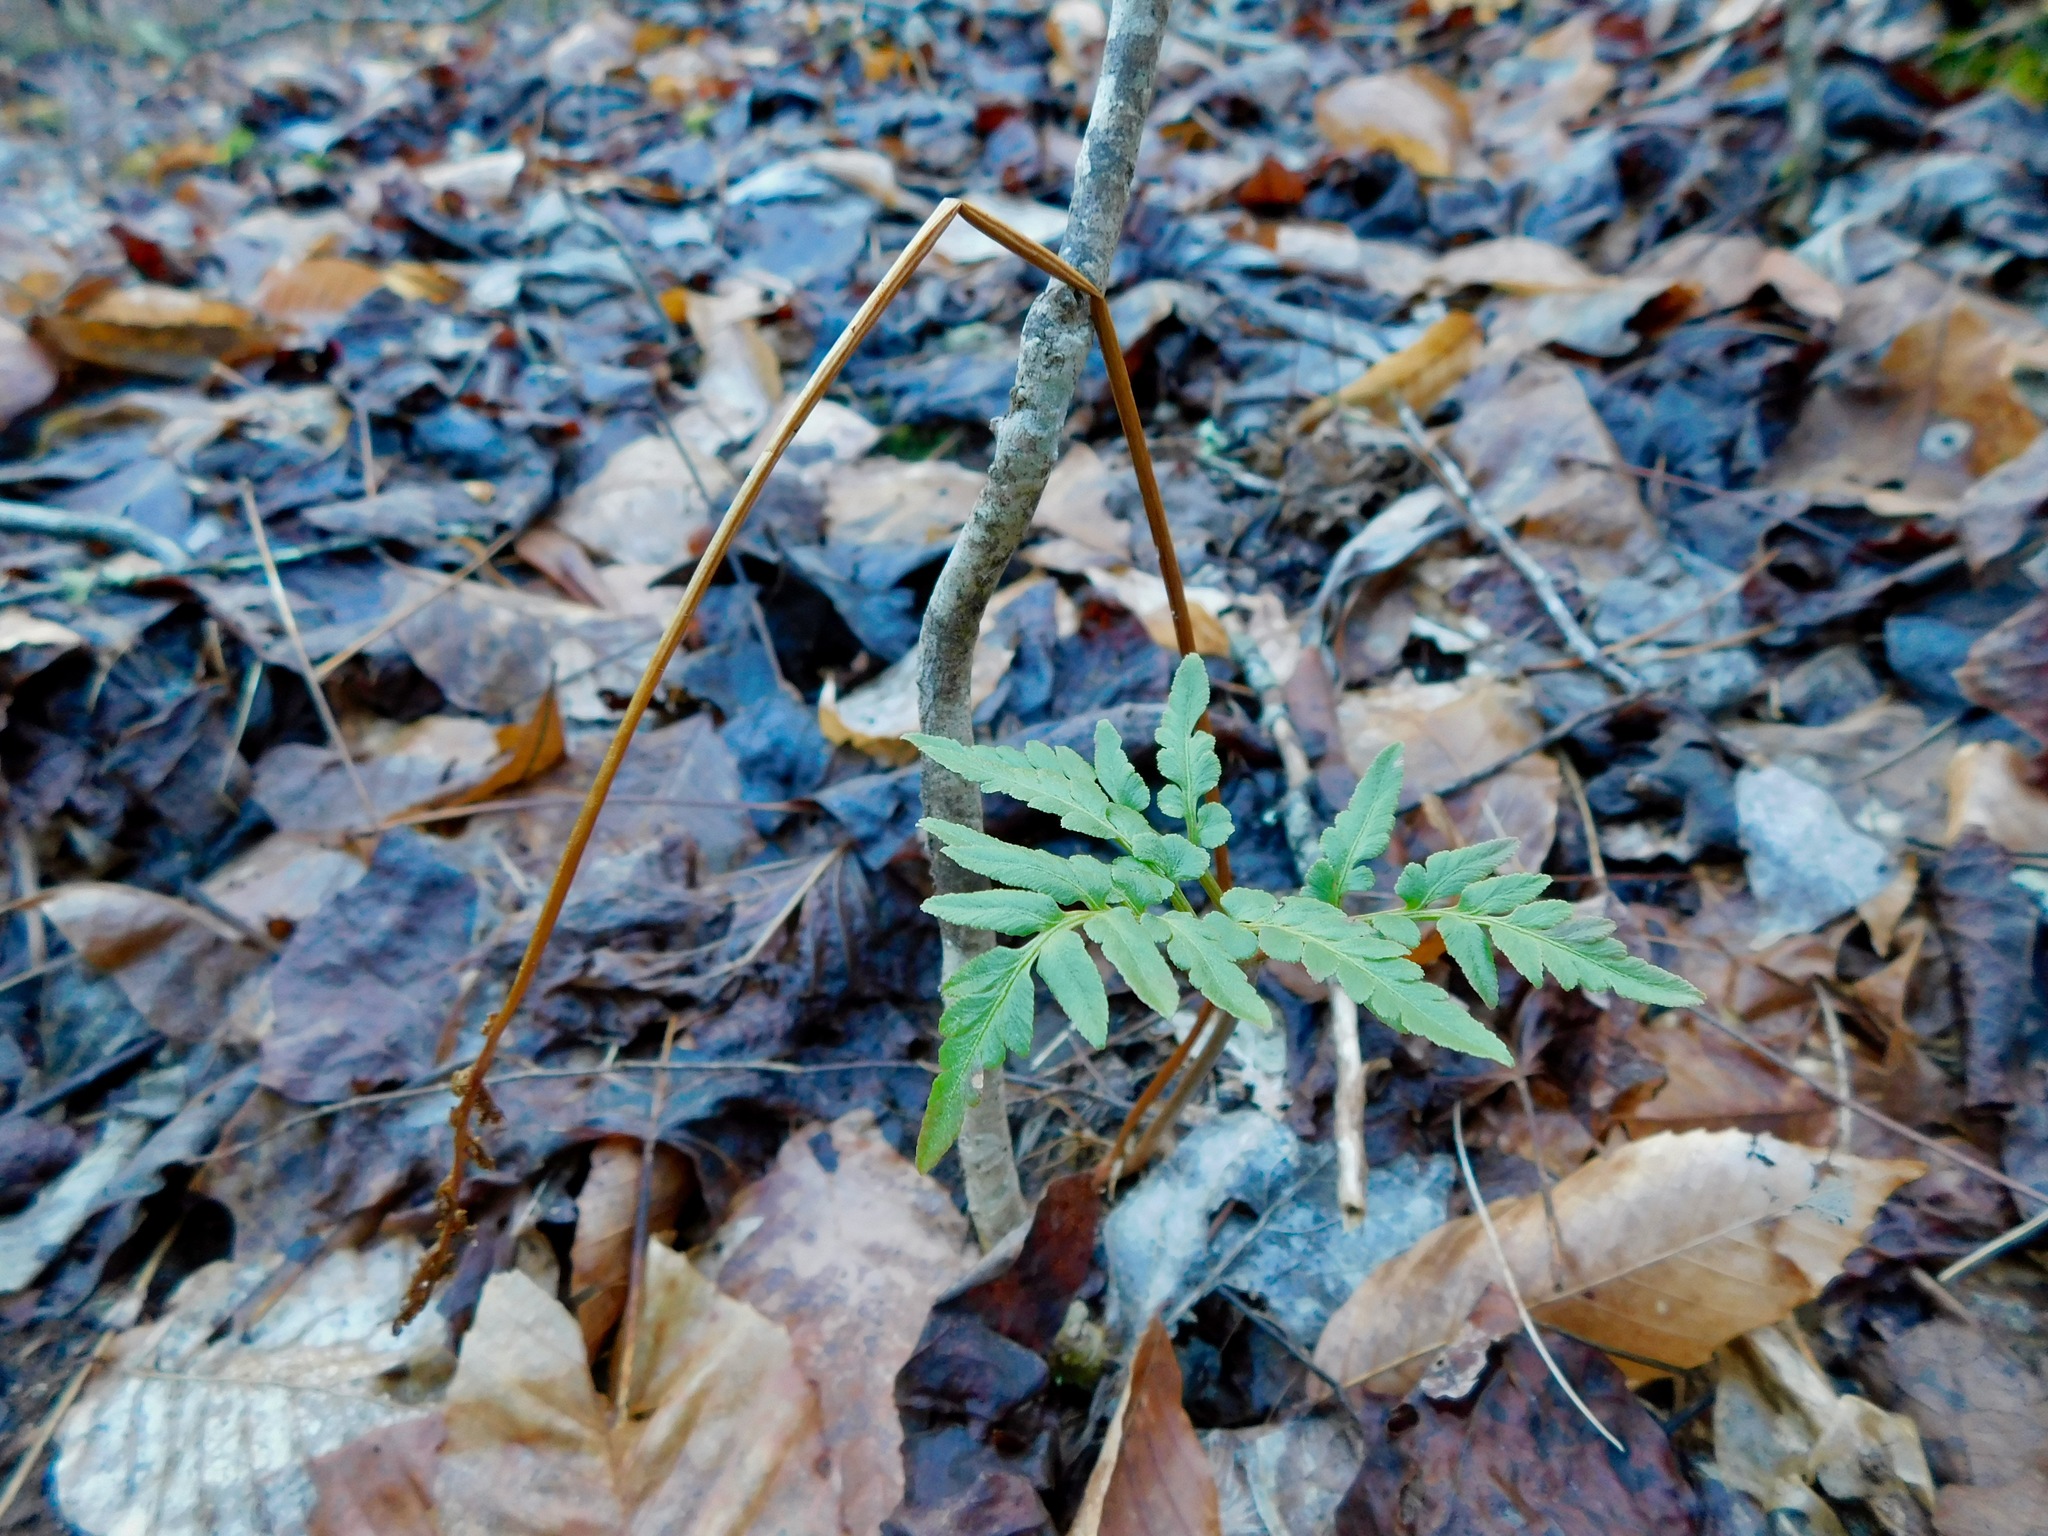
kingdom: Plantae
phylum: Tracheophyta
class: Polypodiopsida
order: Ophioglossales
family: Ophioglossaceae
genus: Sceptridium
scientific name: Sceptridium dissectum
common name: Cut-leaved grapefern
